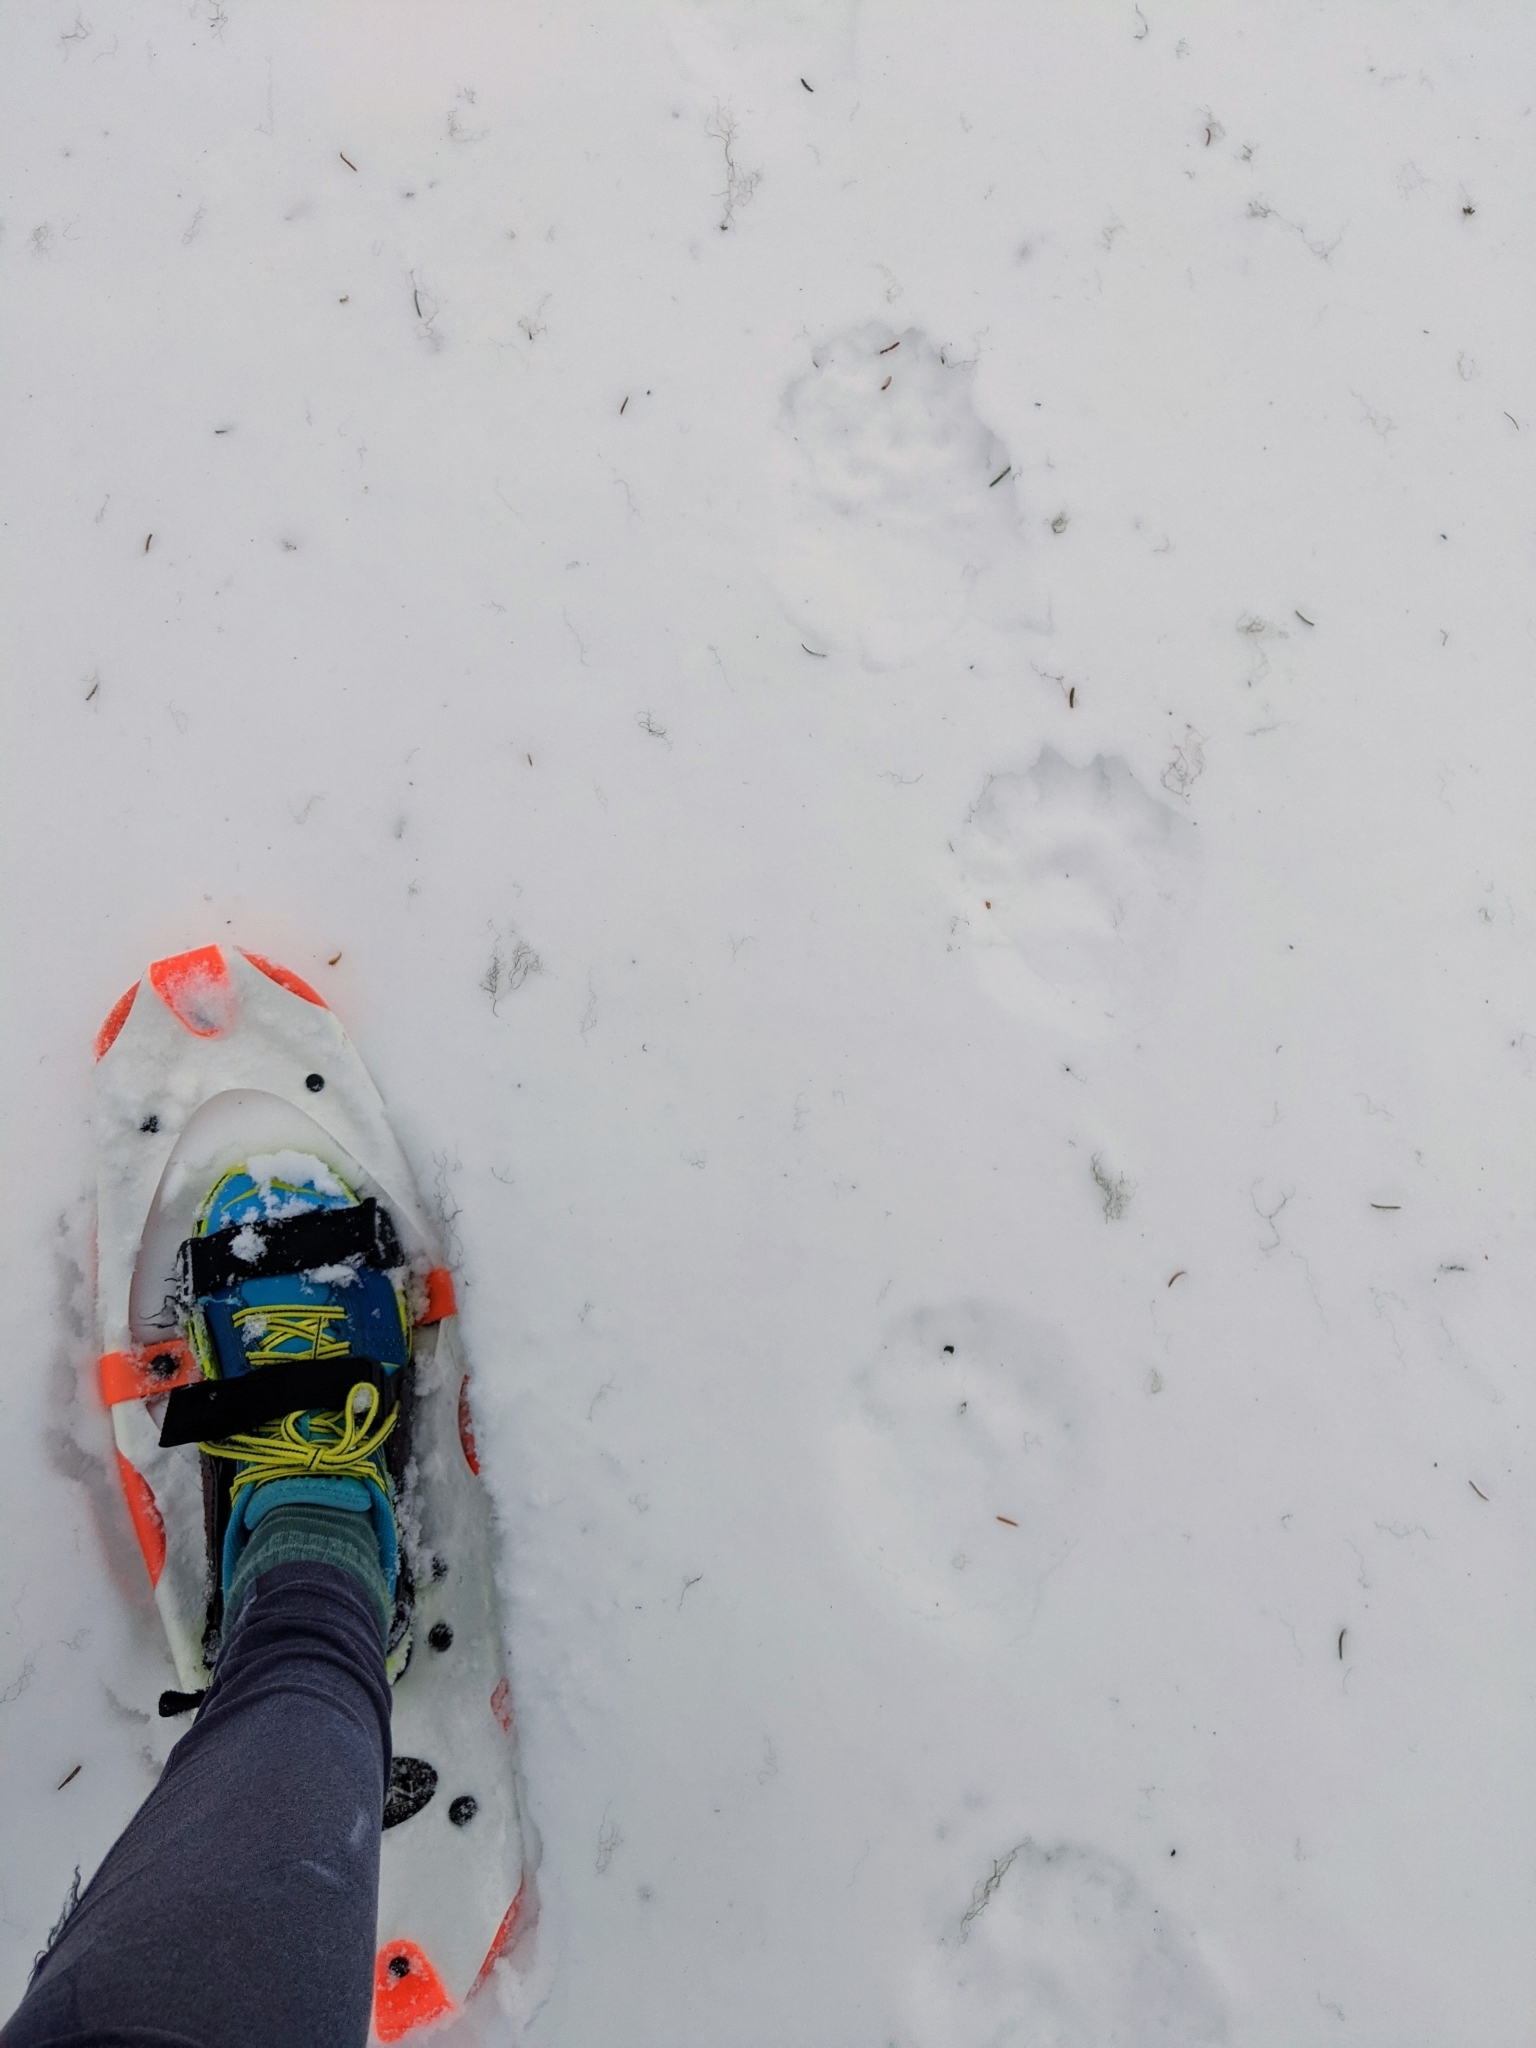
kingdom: Animalia
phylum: Chordata
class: Mammalia
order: Carnivora
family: Mustelidae
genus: Gulo
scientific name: Gulo gulo
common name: Wolverine
